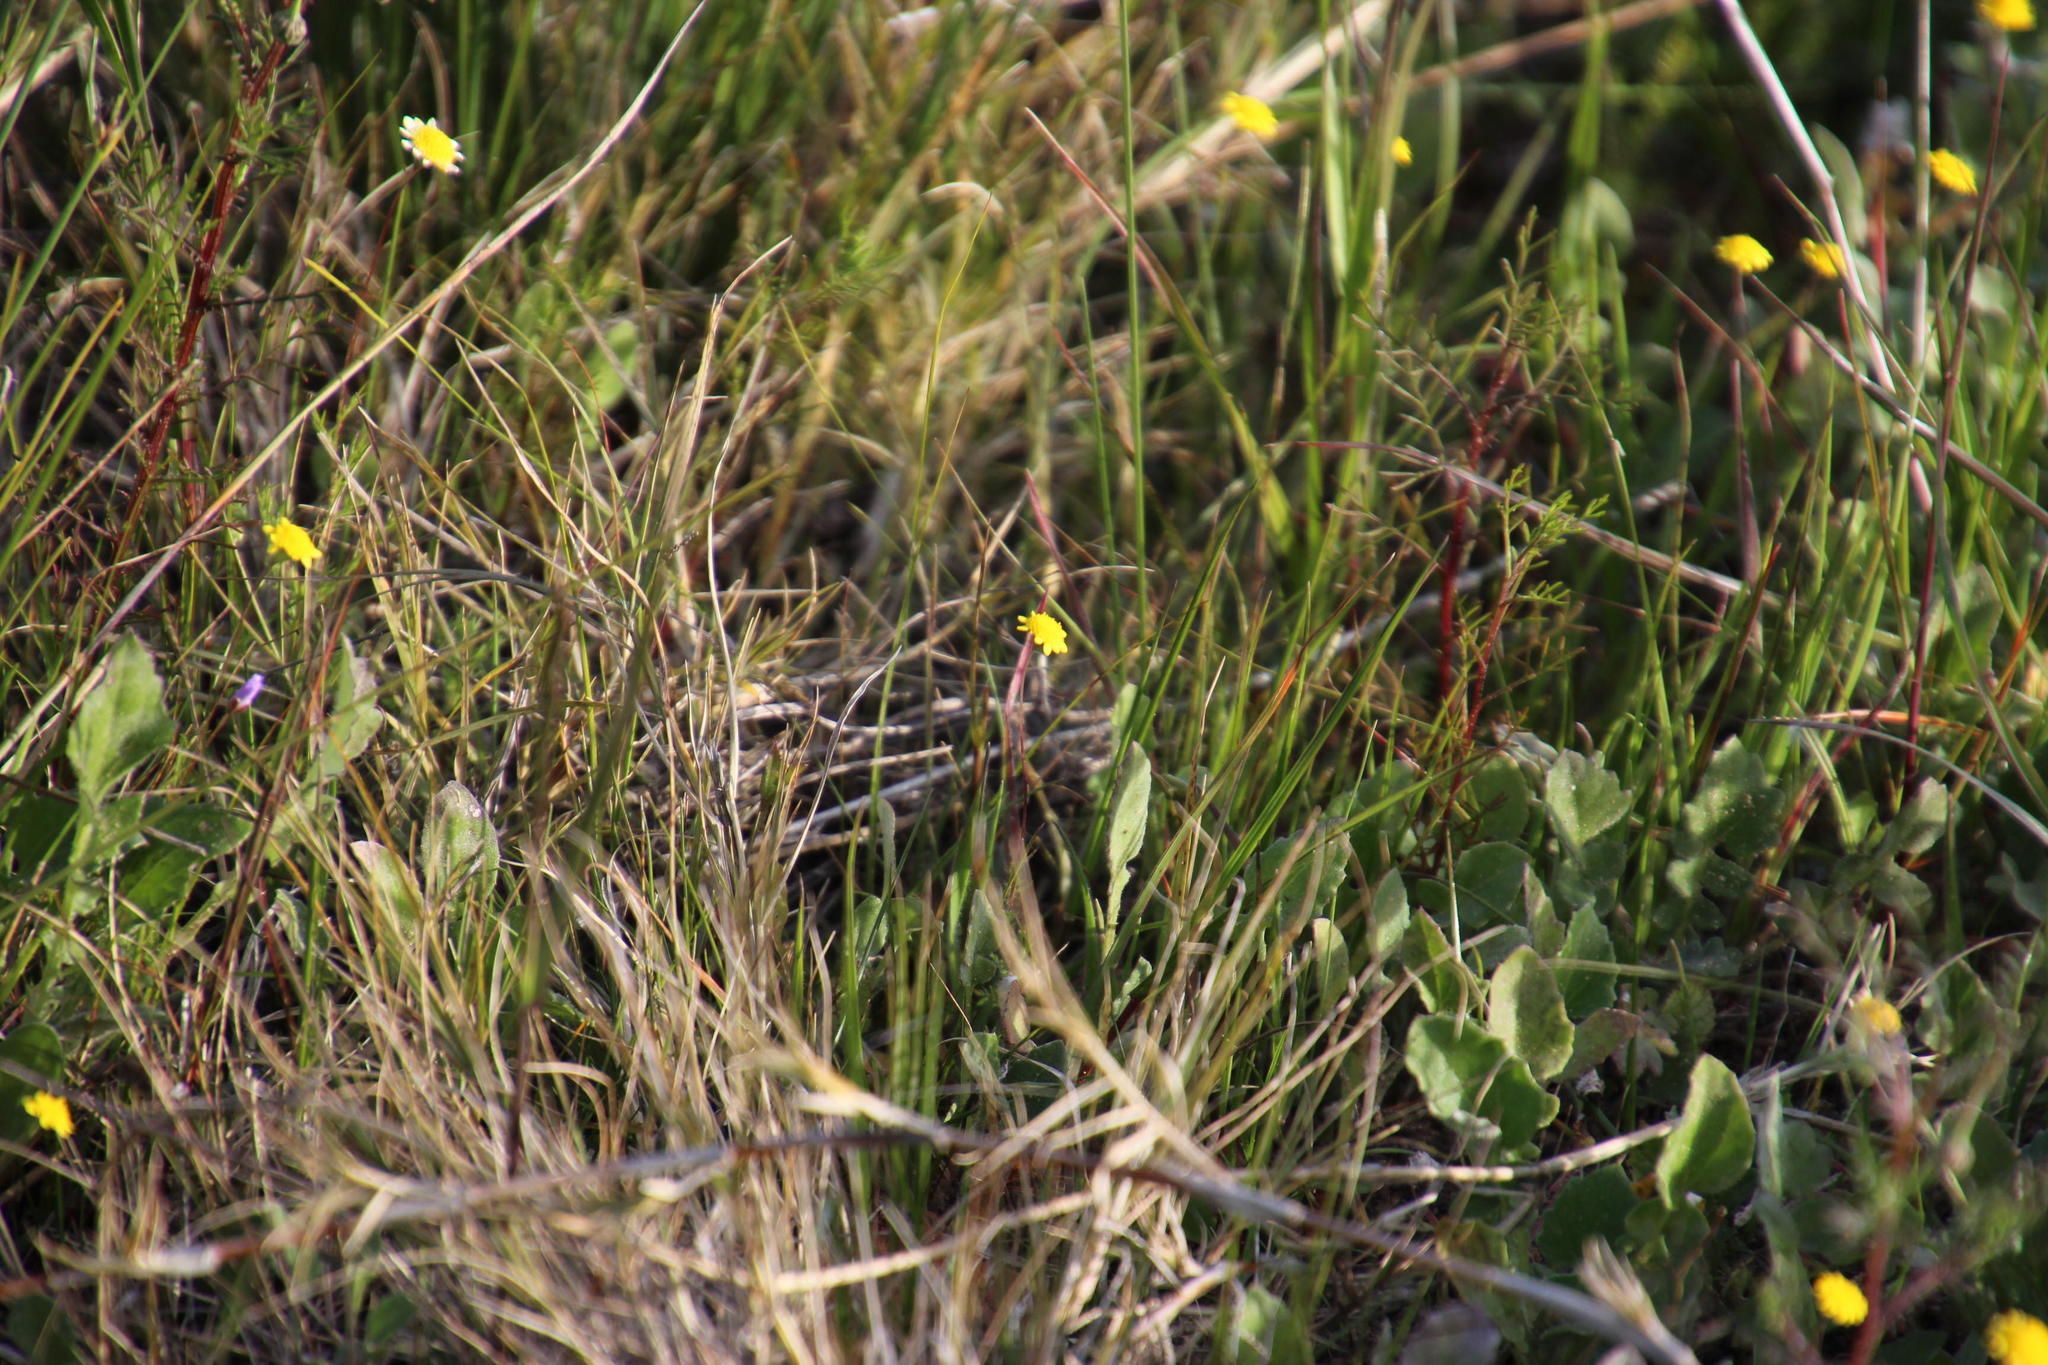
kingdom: Plantae
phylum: Tracheophyta
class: Magnoliopsida
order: Asterales
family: Asteraceae
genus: Cotula
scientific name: Cotula pruinosa
